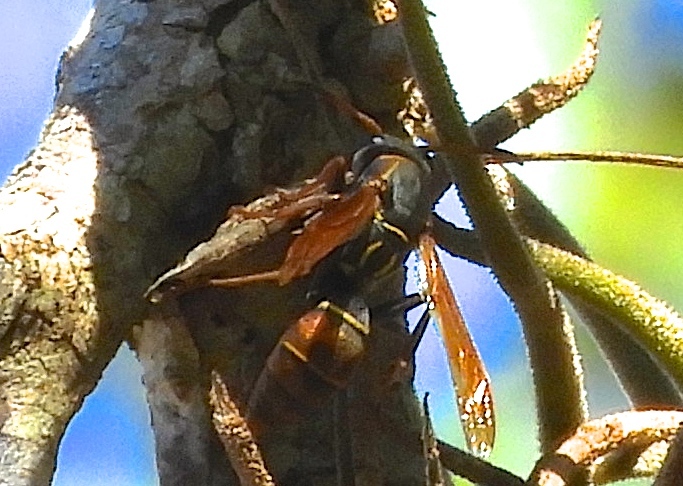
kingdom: Animalia
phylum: Arthropoda
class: Insecta
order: Hymenoptera
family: Eumenidae
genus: Polistes
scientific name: Polistes pacificus
